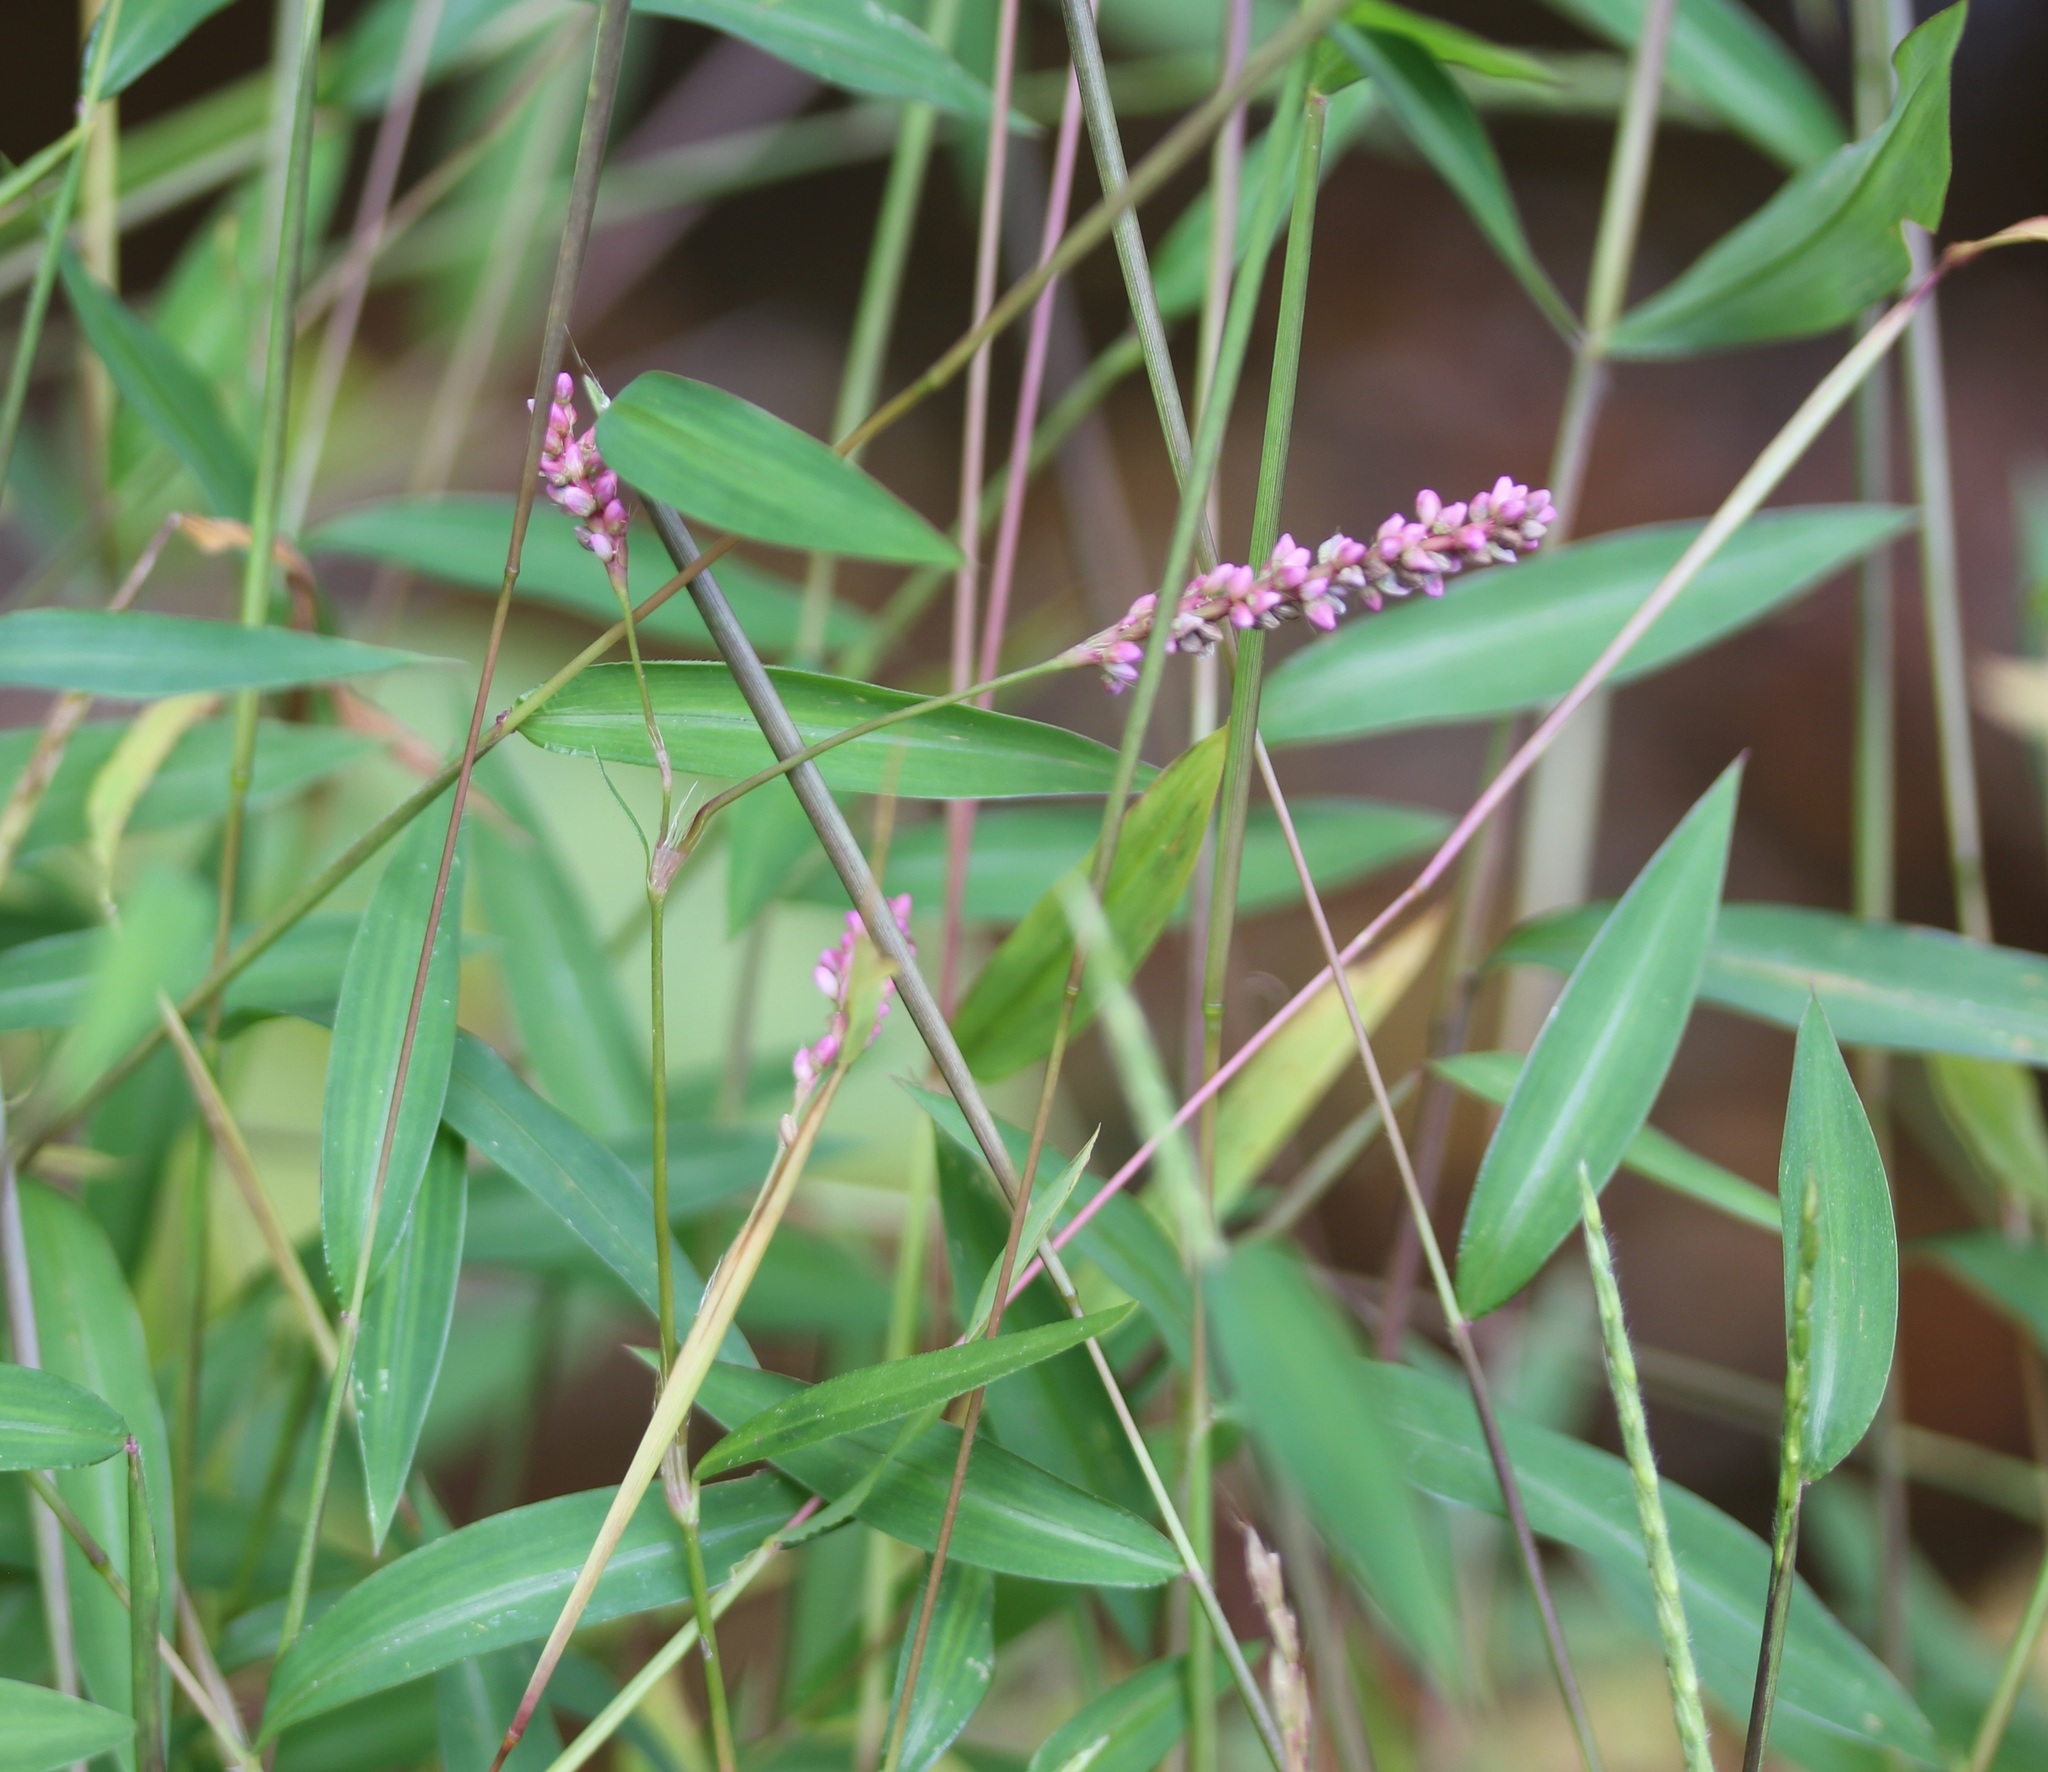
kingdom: Plantae
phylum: Tracheophyta
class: Magnoliopsida
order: Caryophyllales
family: Polygonaceae
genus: Persicaria
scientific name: Persicaria longiseta
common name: Bristly lady's-thumb
